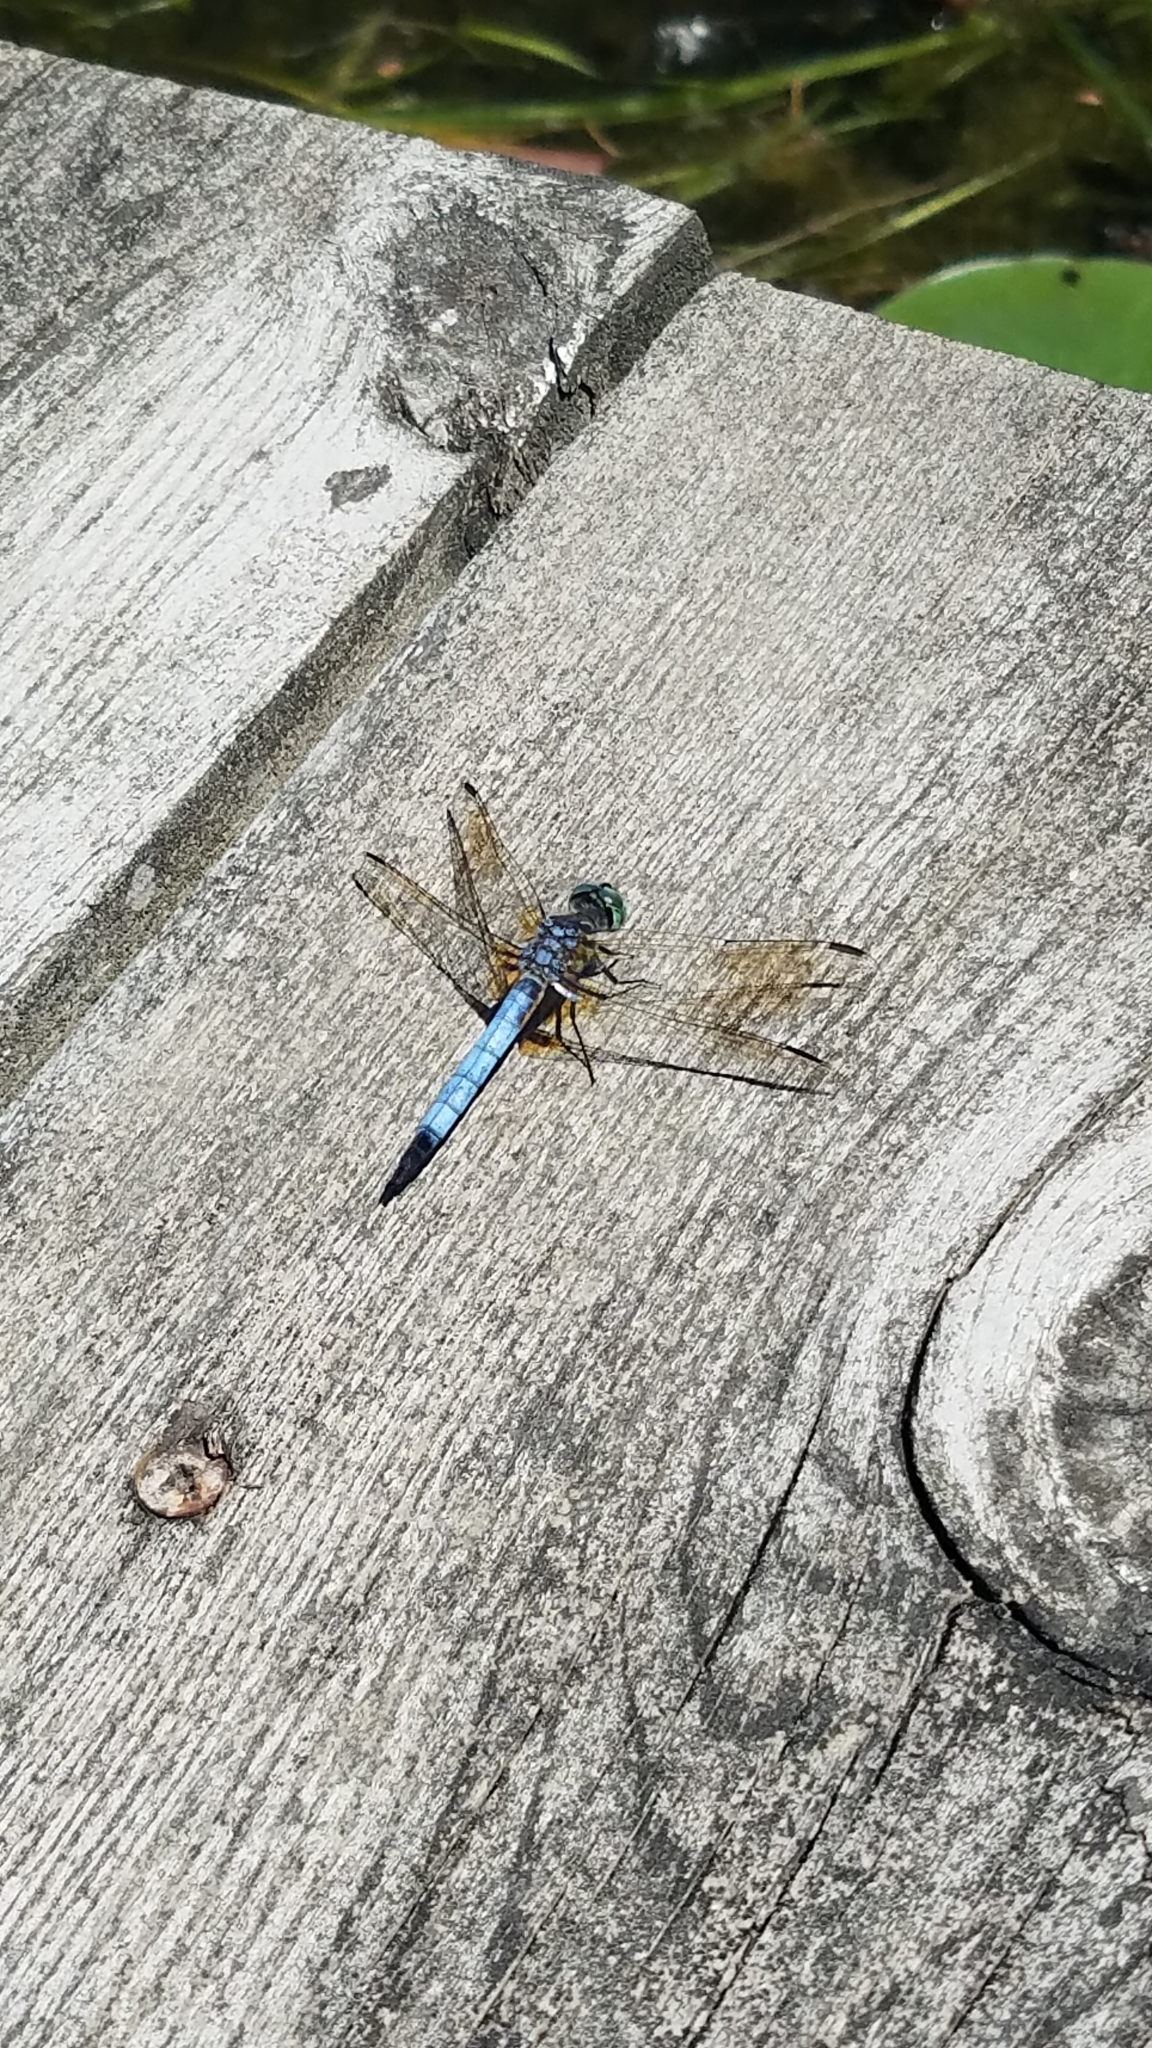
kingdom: Animalia
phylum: Arthropoda
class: Insecta
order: Odonata
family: Libellulidae
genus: Pachydiplax
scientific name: Pachydiplax longipennis
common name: Blue dasher
